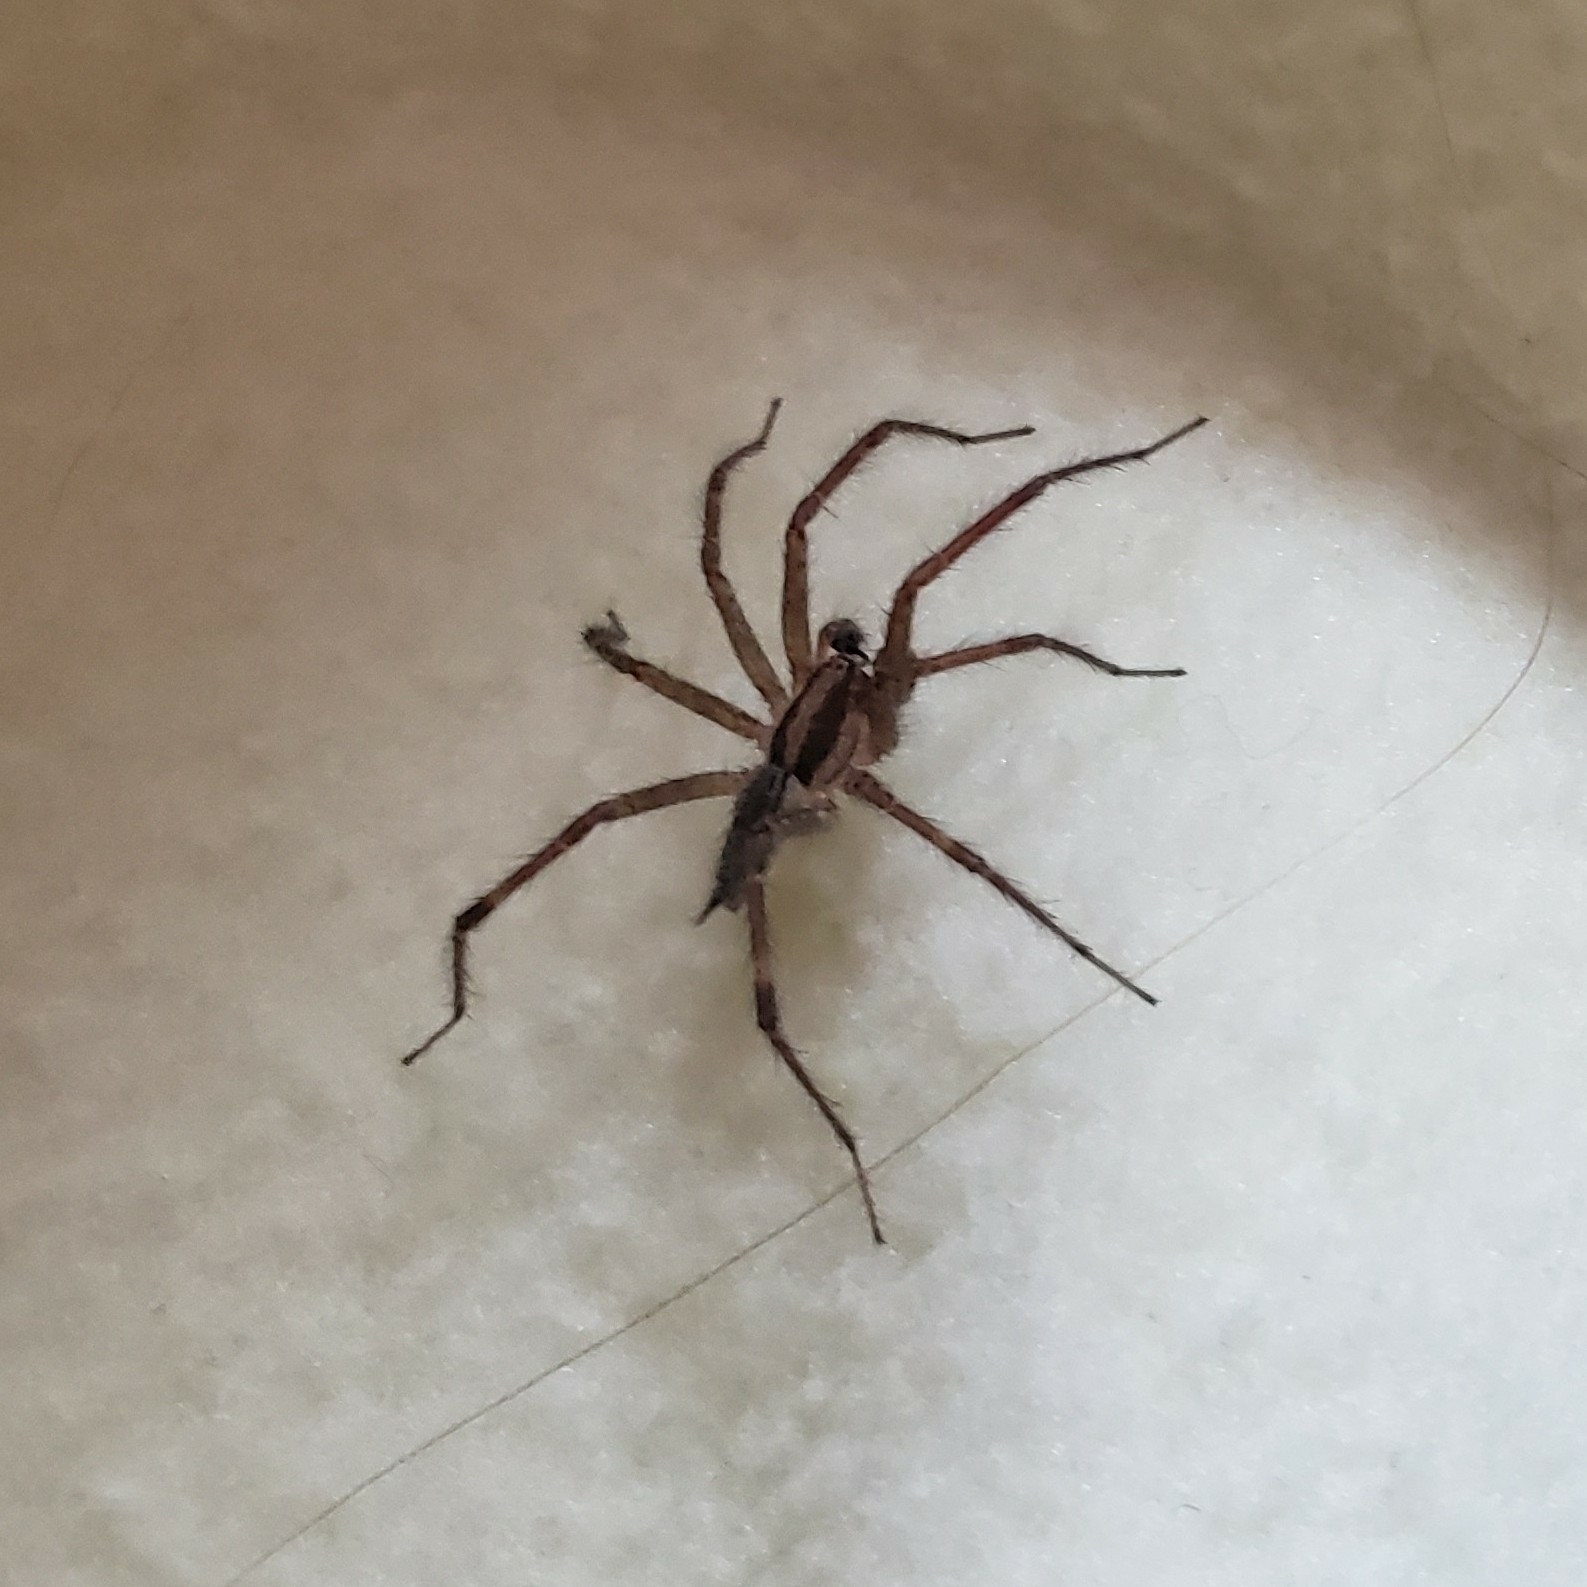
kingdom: Animalia
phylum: Arthropoda
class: Arachnida
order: Araneae
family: Agelenidae
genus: Agelenopsis
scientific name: Agelenopsis
